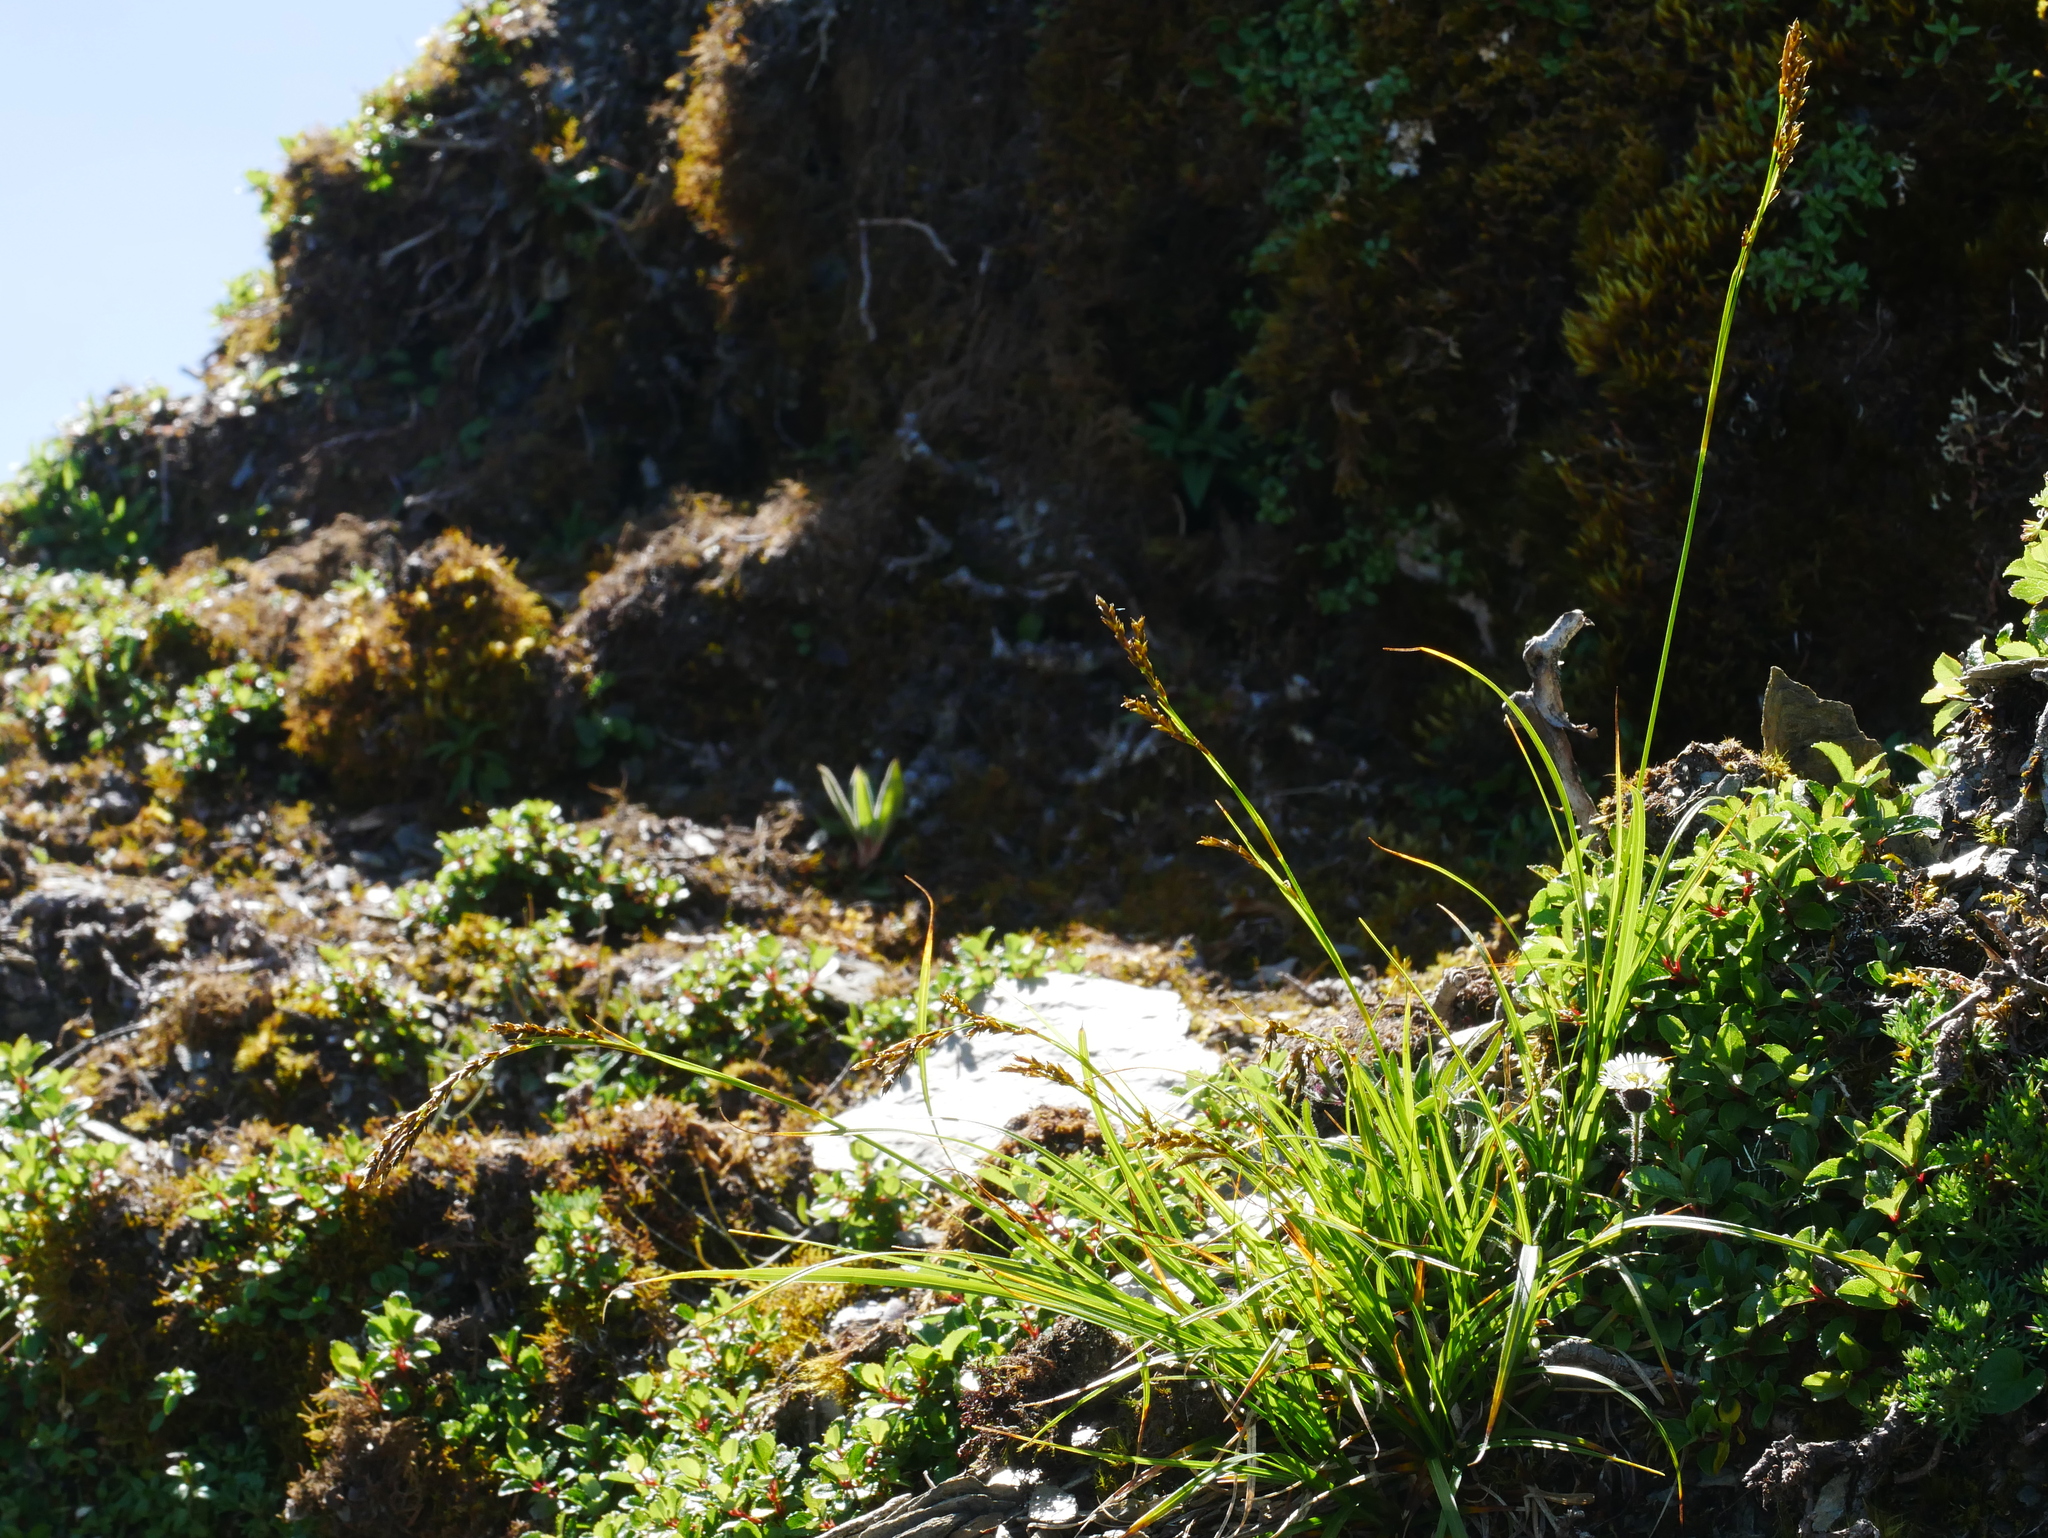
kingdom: Plantae
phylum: Tracheophyta
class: Liliopsida
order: Poales
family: Cyperaceae
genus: Carex
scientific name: Carex brachyanthera
